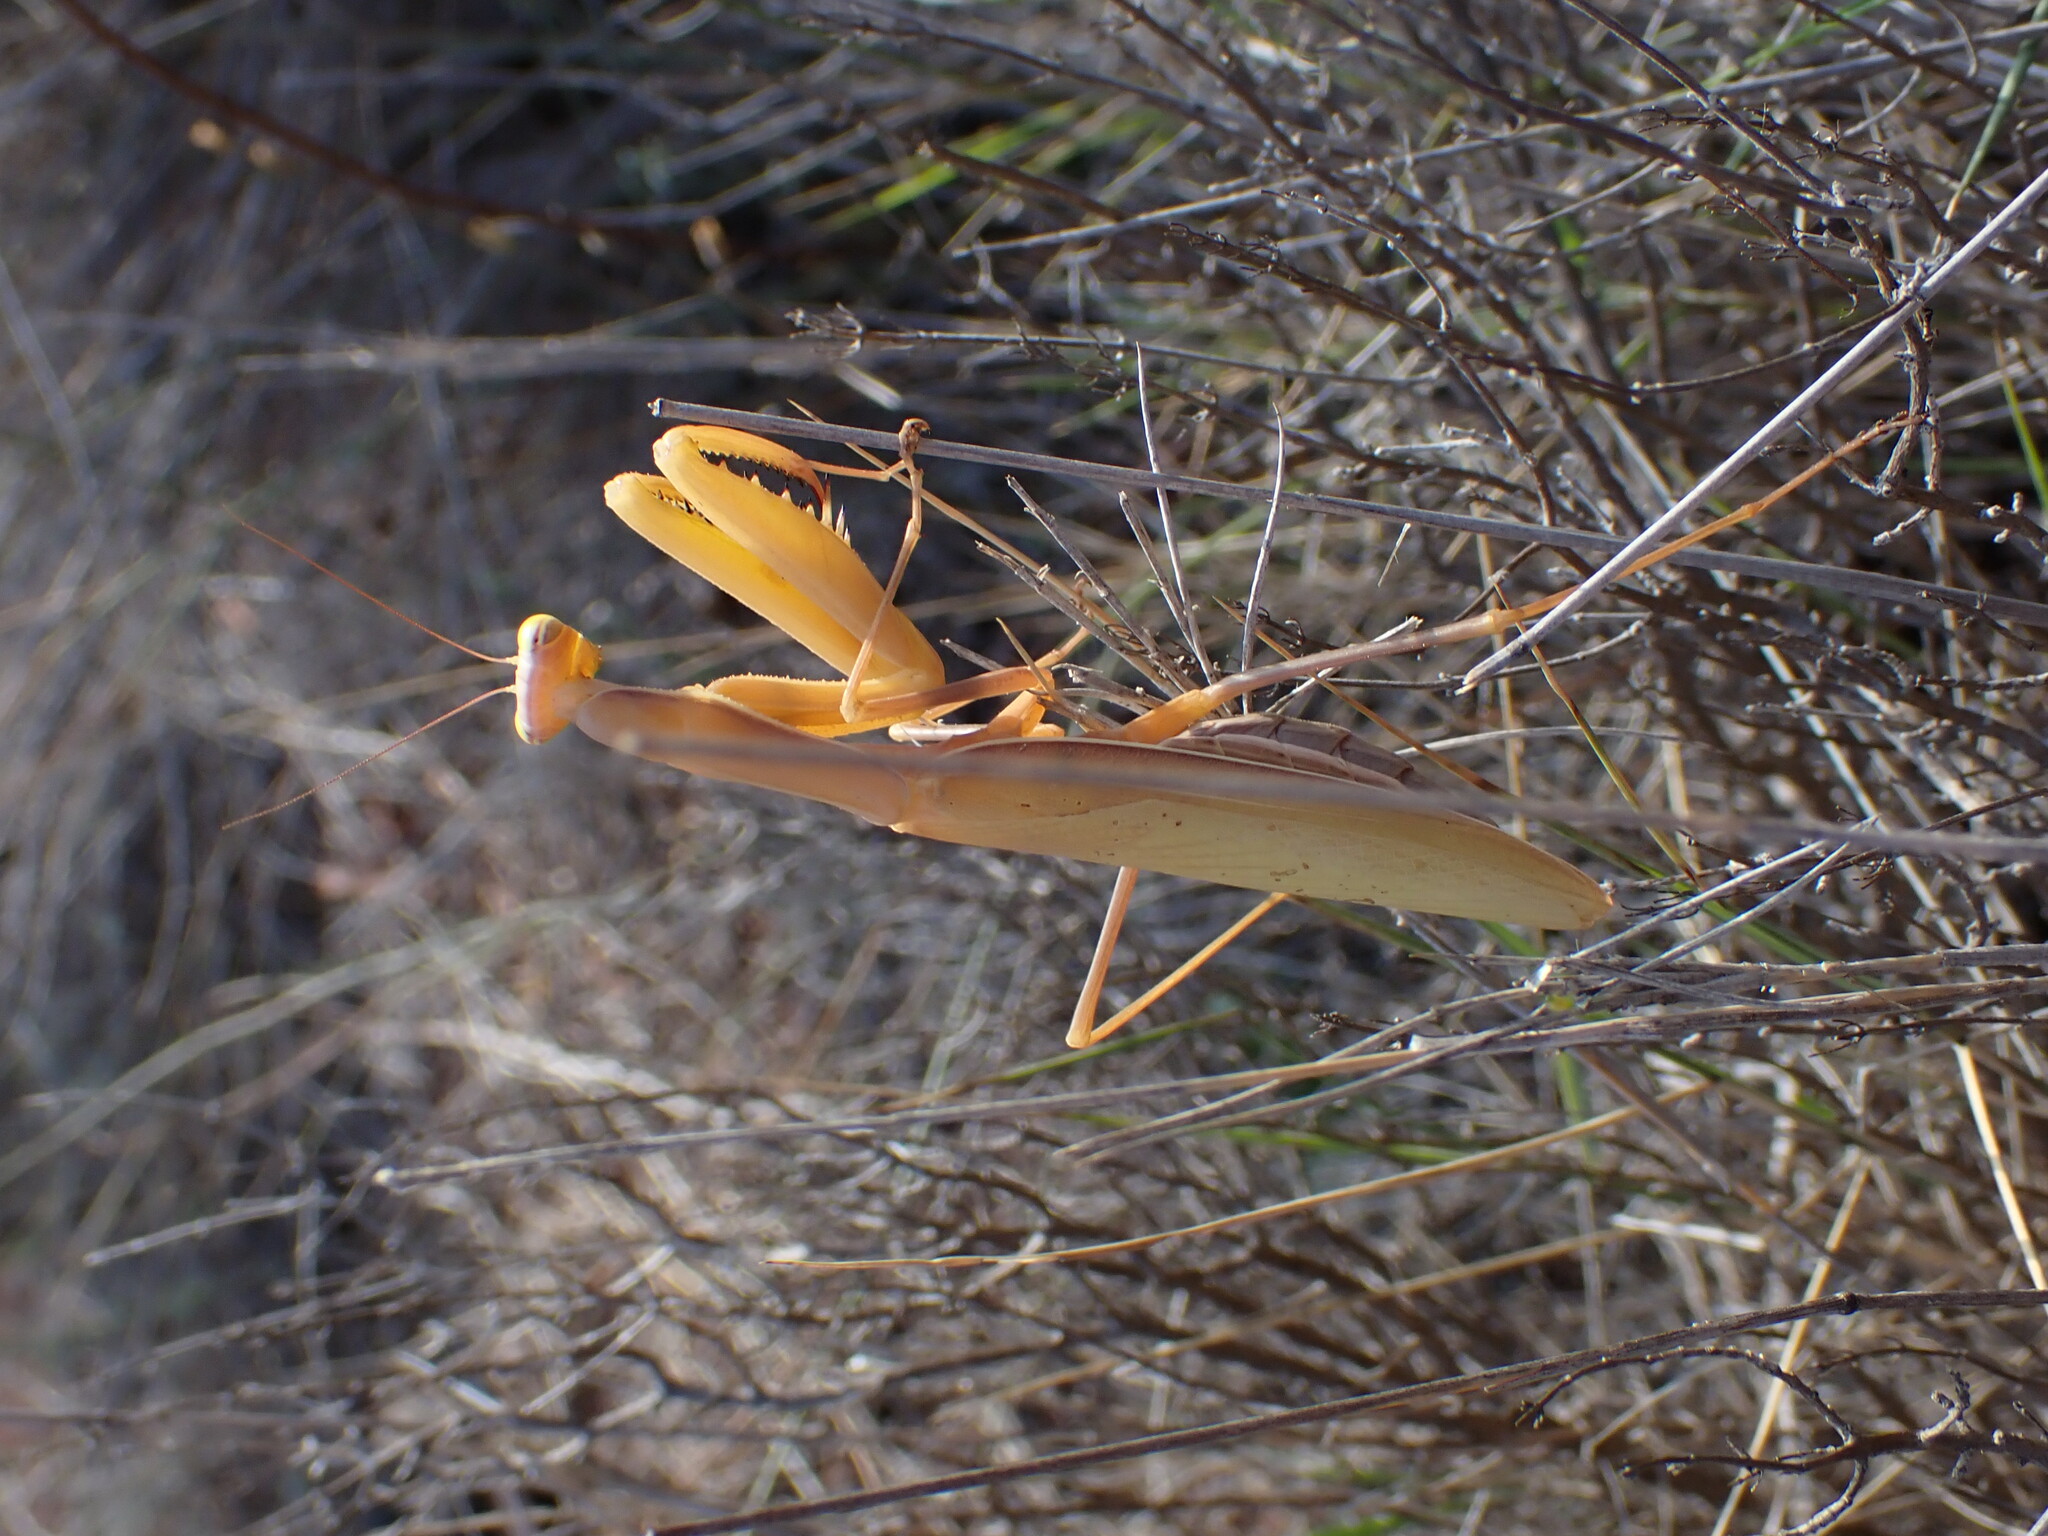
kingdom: Animalia
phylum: Arthropoda
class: Insecta
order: Mantodea
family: Mantidae
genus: Mantis
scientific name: Mantis religiosa
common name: Praying mantis
